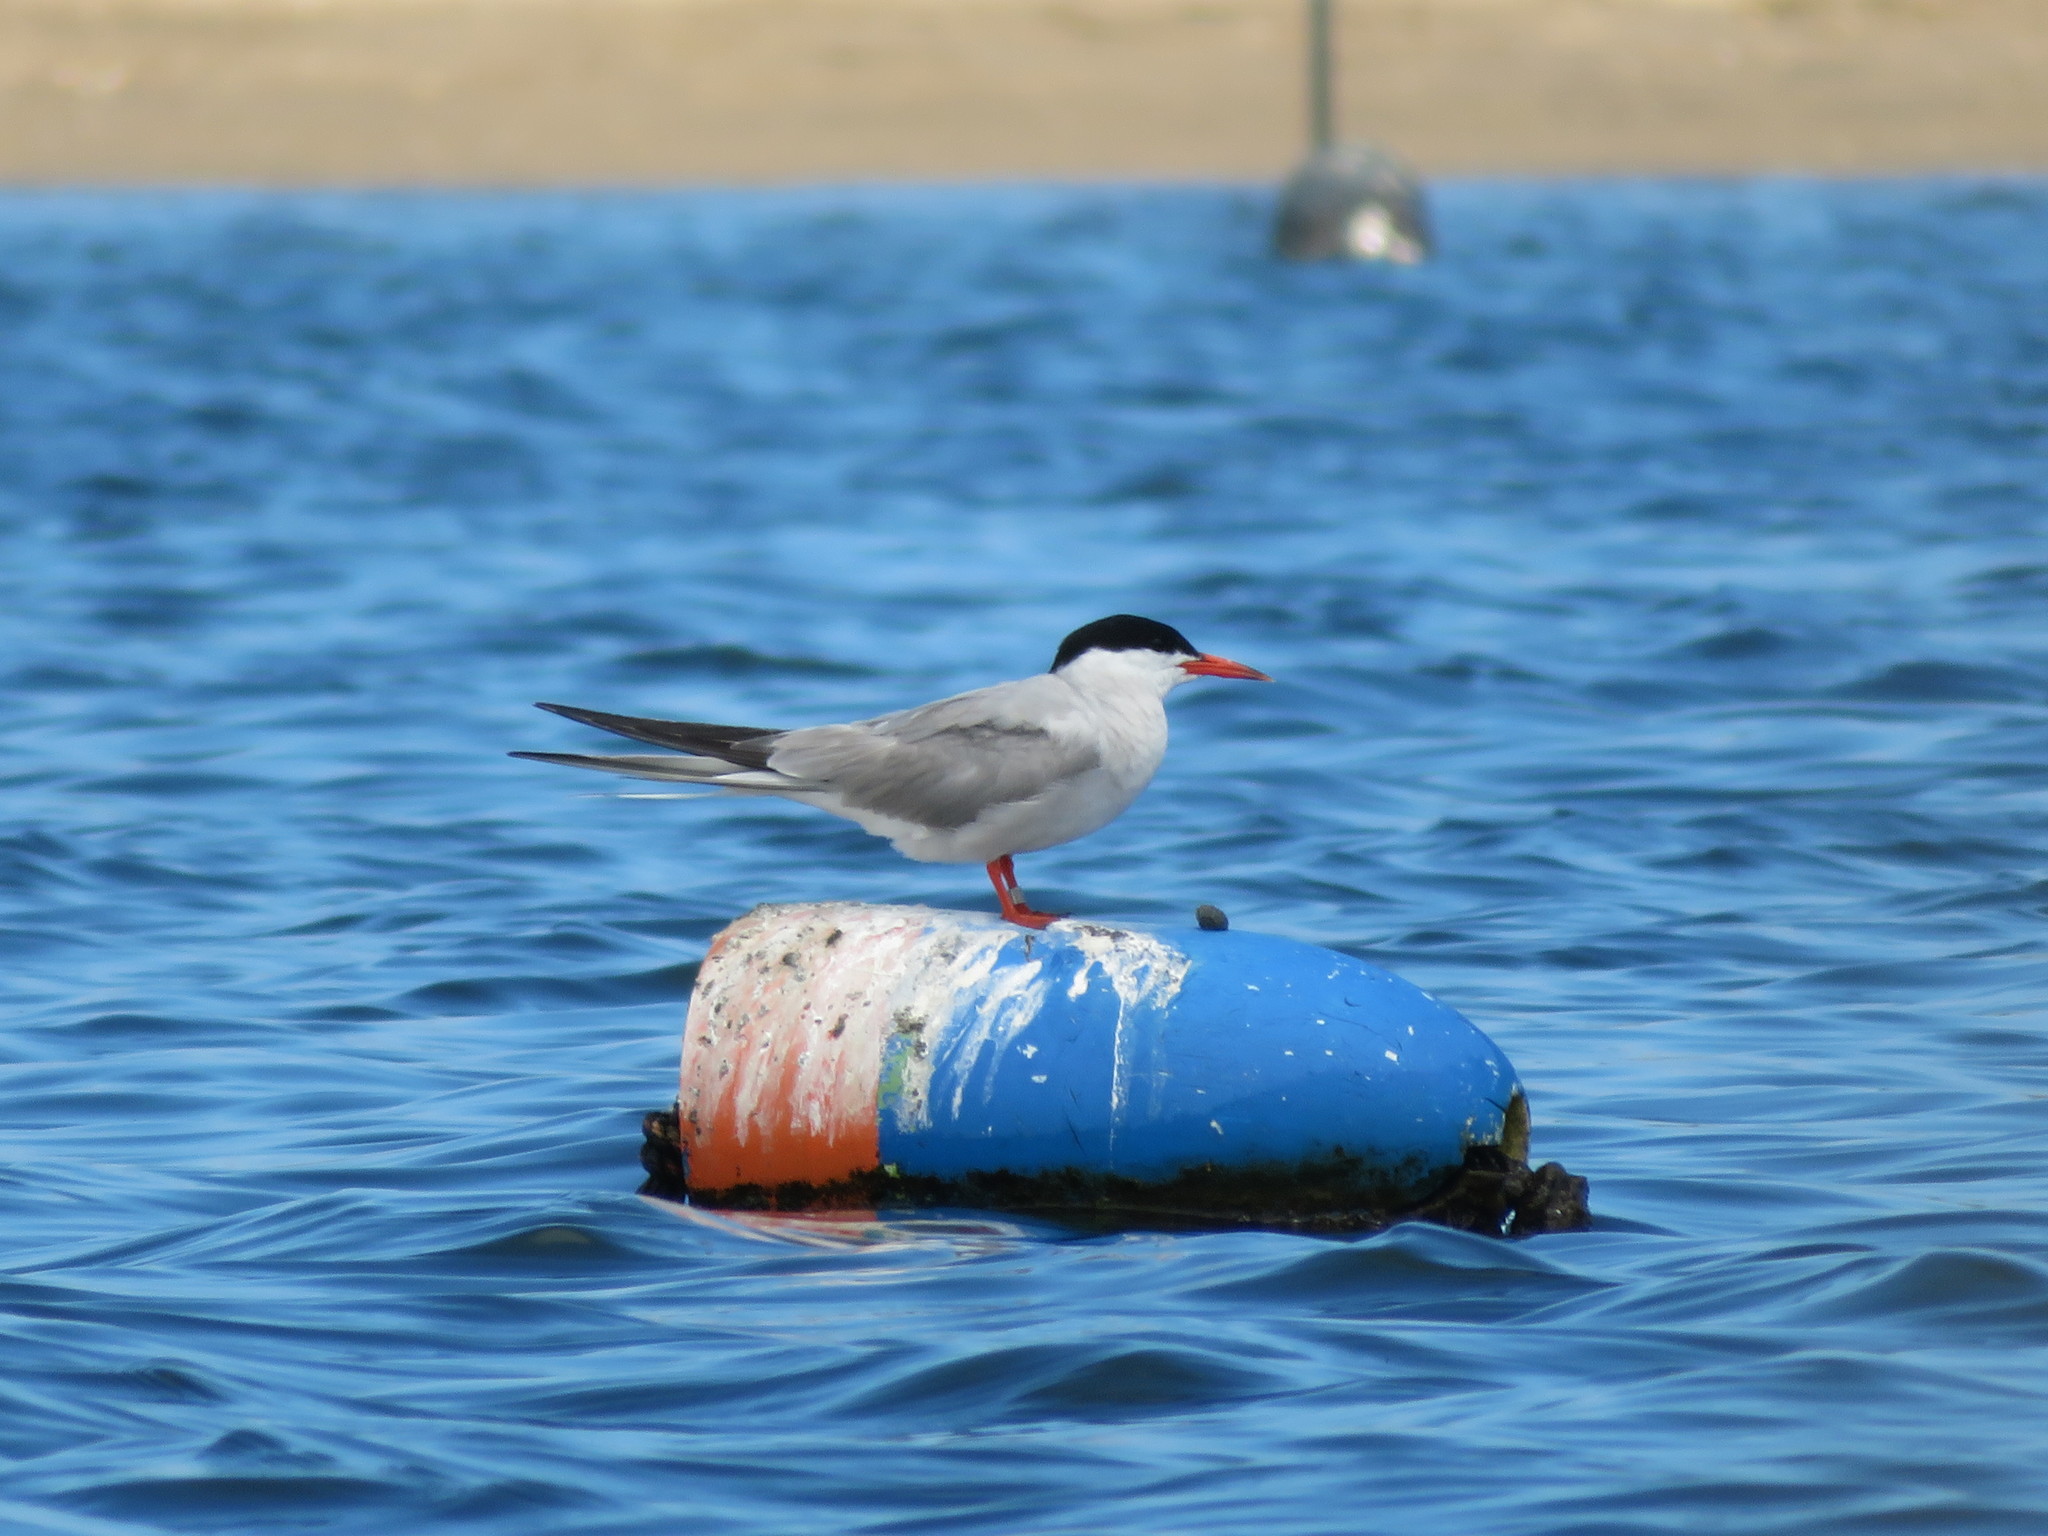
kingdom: Animalia
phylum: Chordata
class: Aves
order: Charadriiformes
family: Laridae
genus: Sterna
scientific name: Sterna hirundo
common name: Common tern
